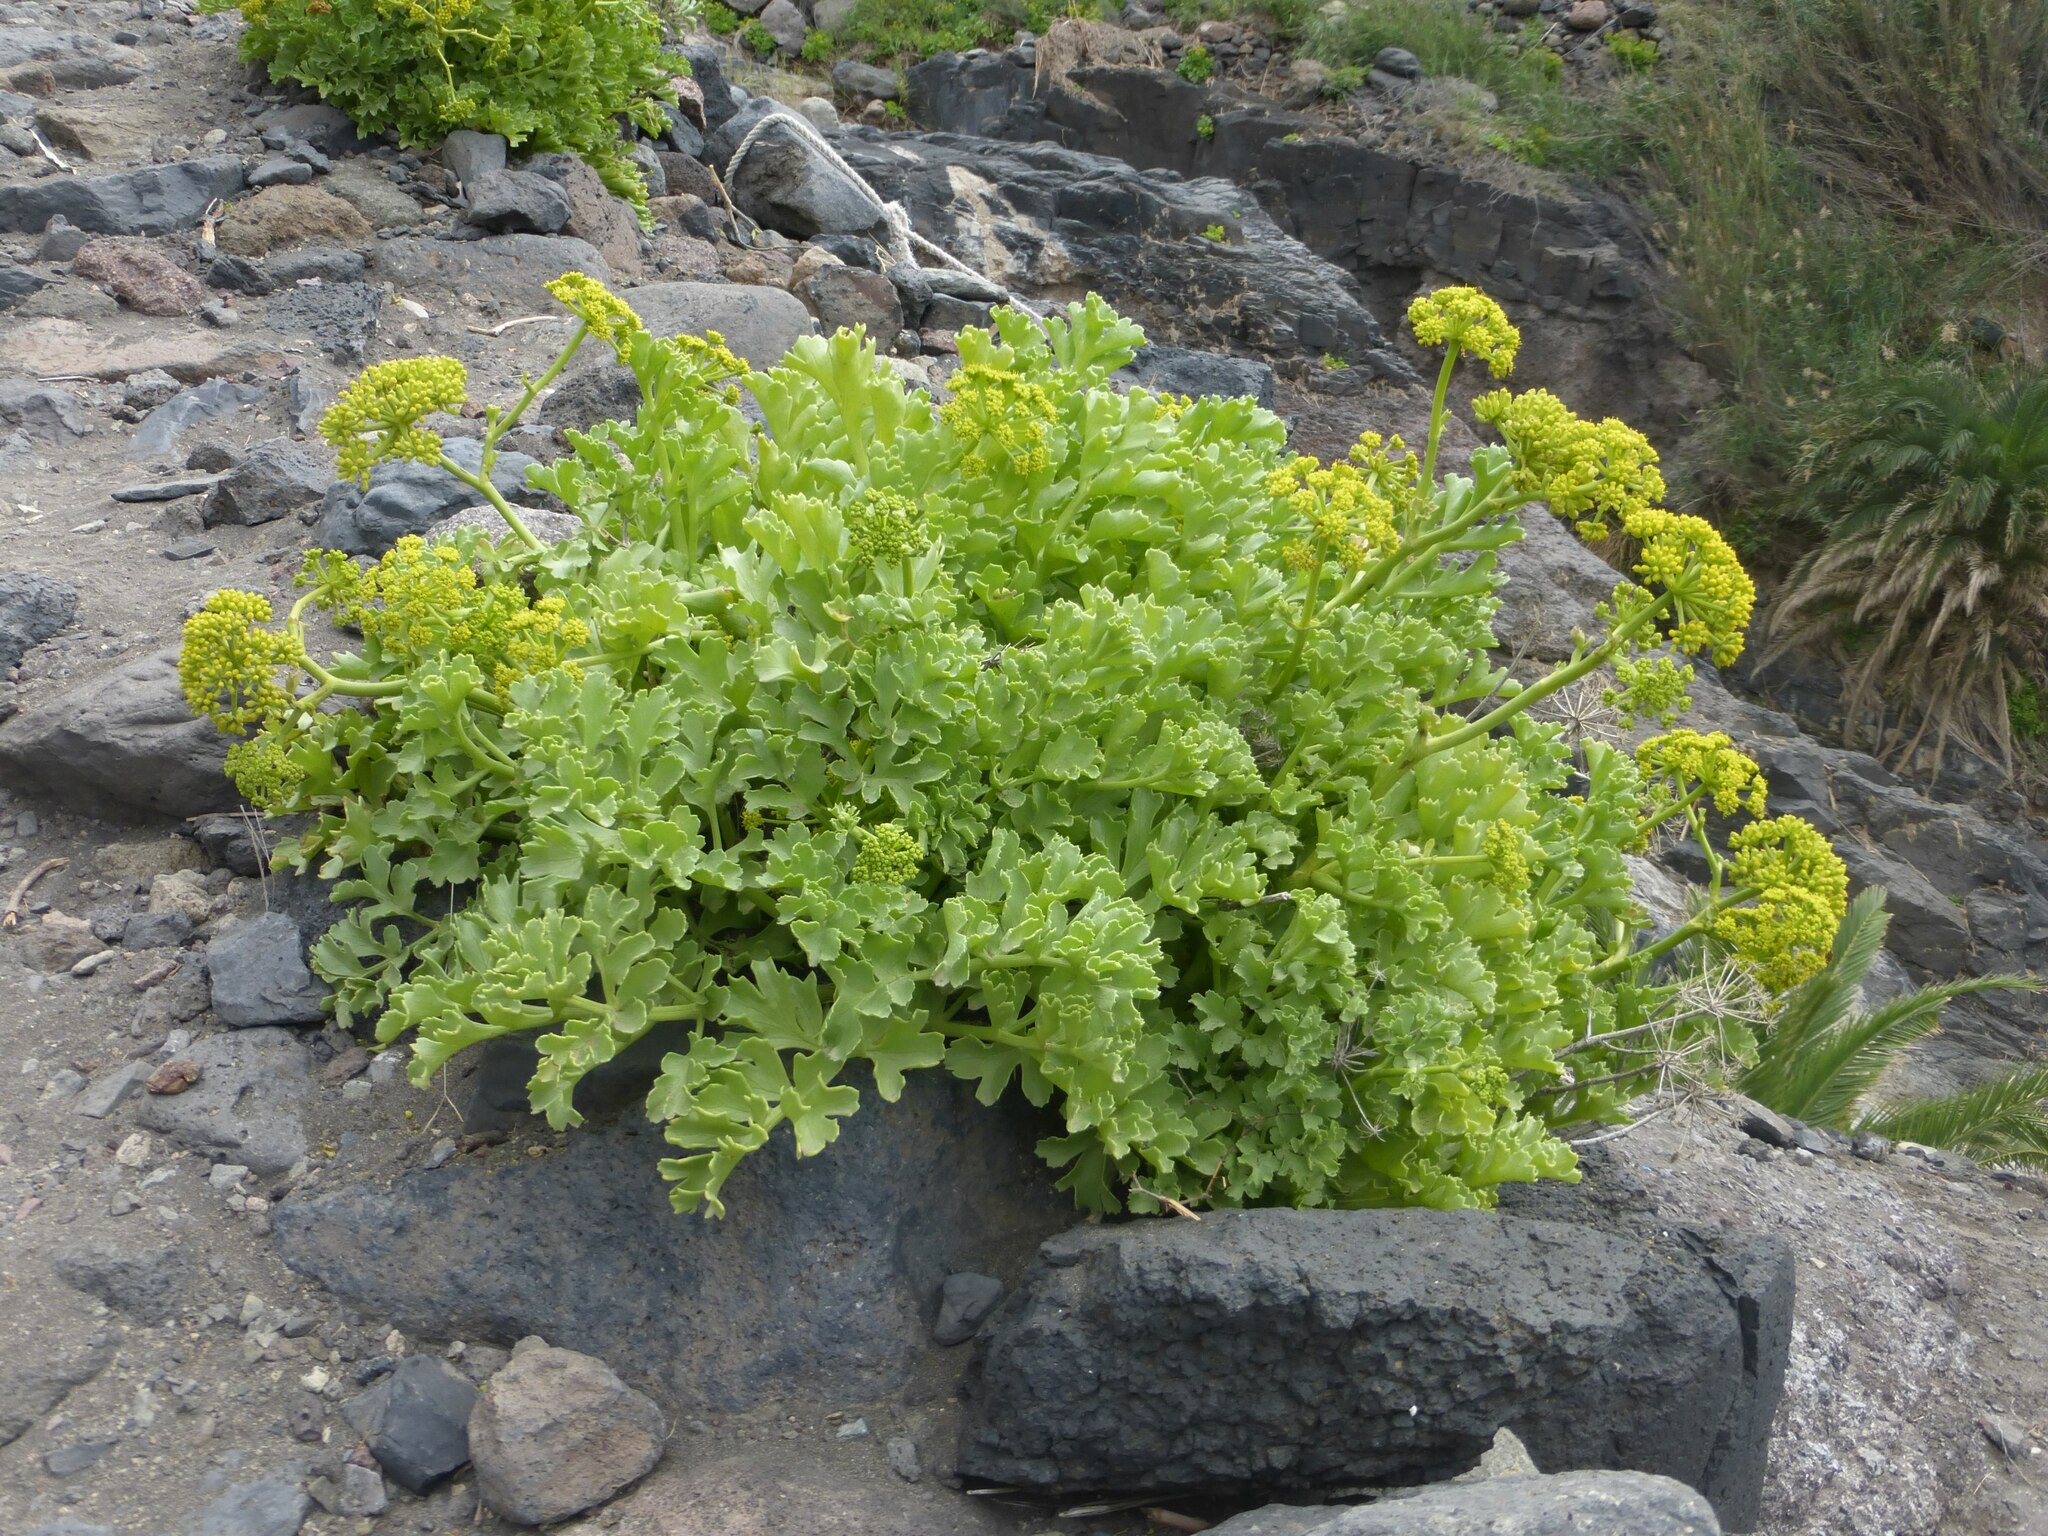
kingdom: Plantae
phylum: Tracheophyta
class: Magnoliopsida
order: Apiales
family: Apiaceae
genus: Astydamia
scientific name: Astydamia latifolia
